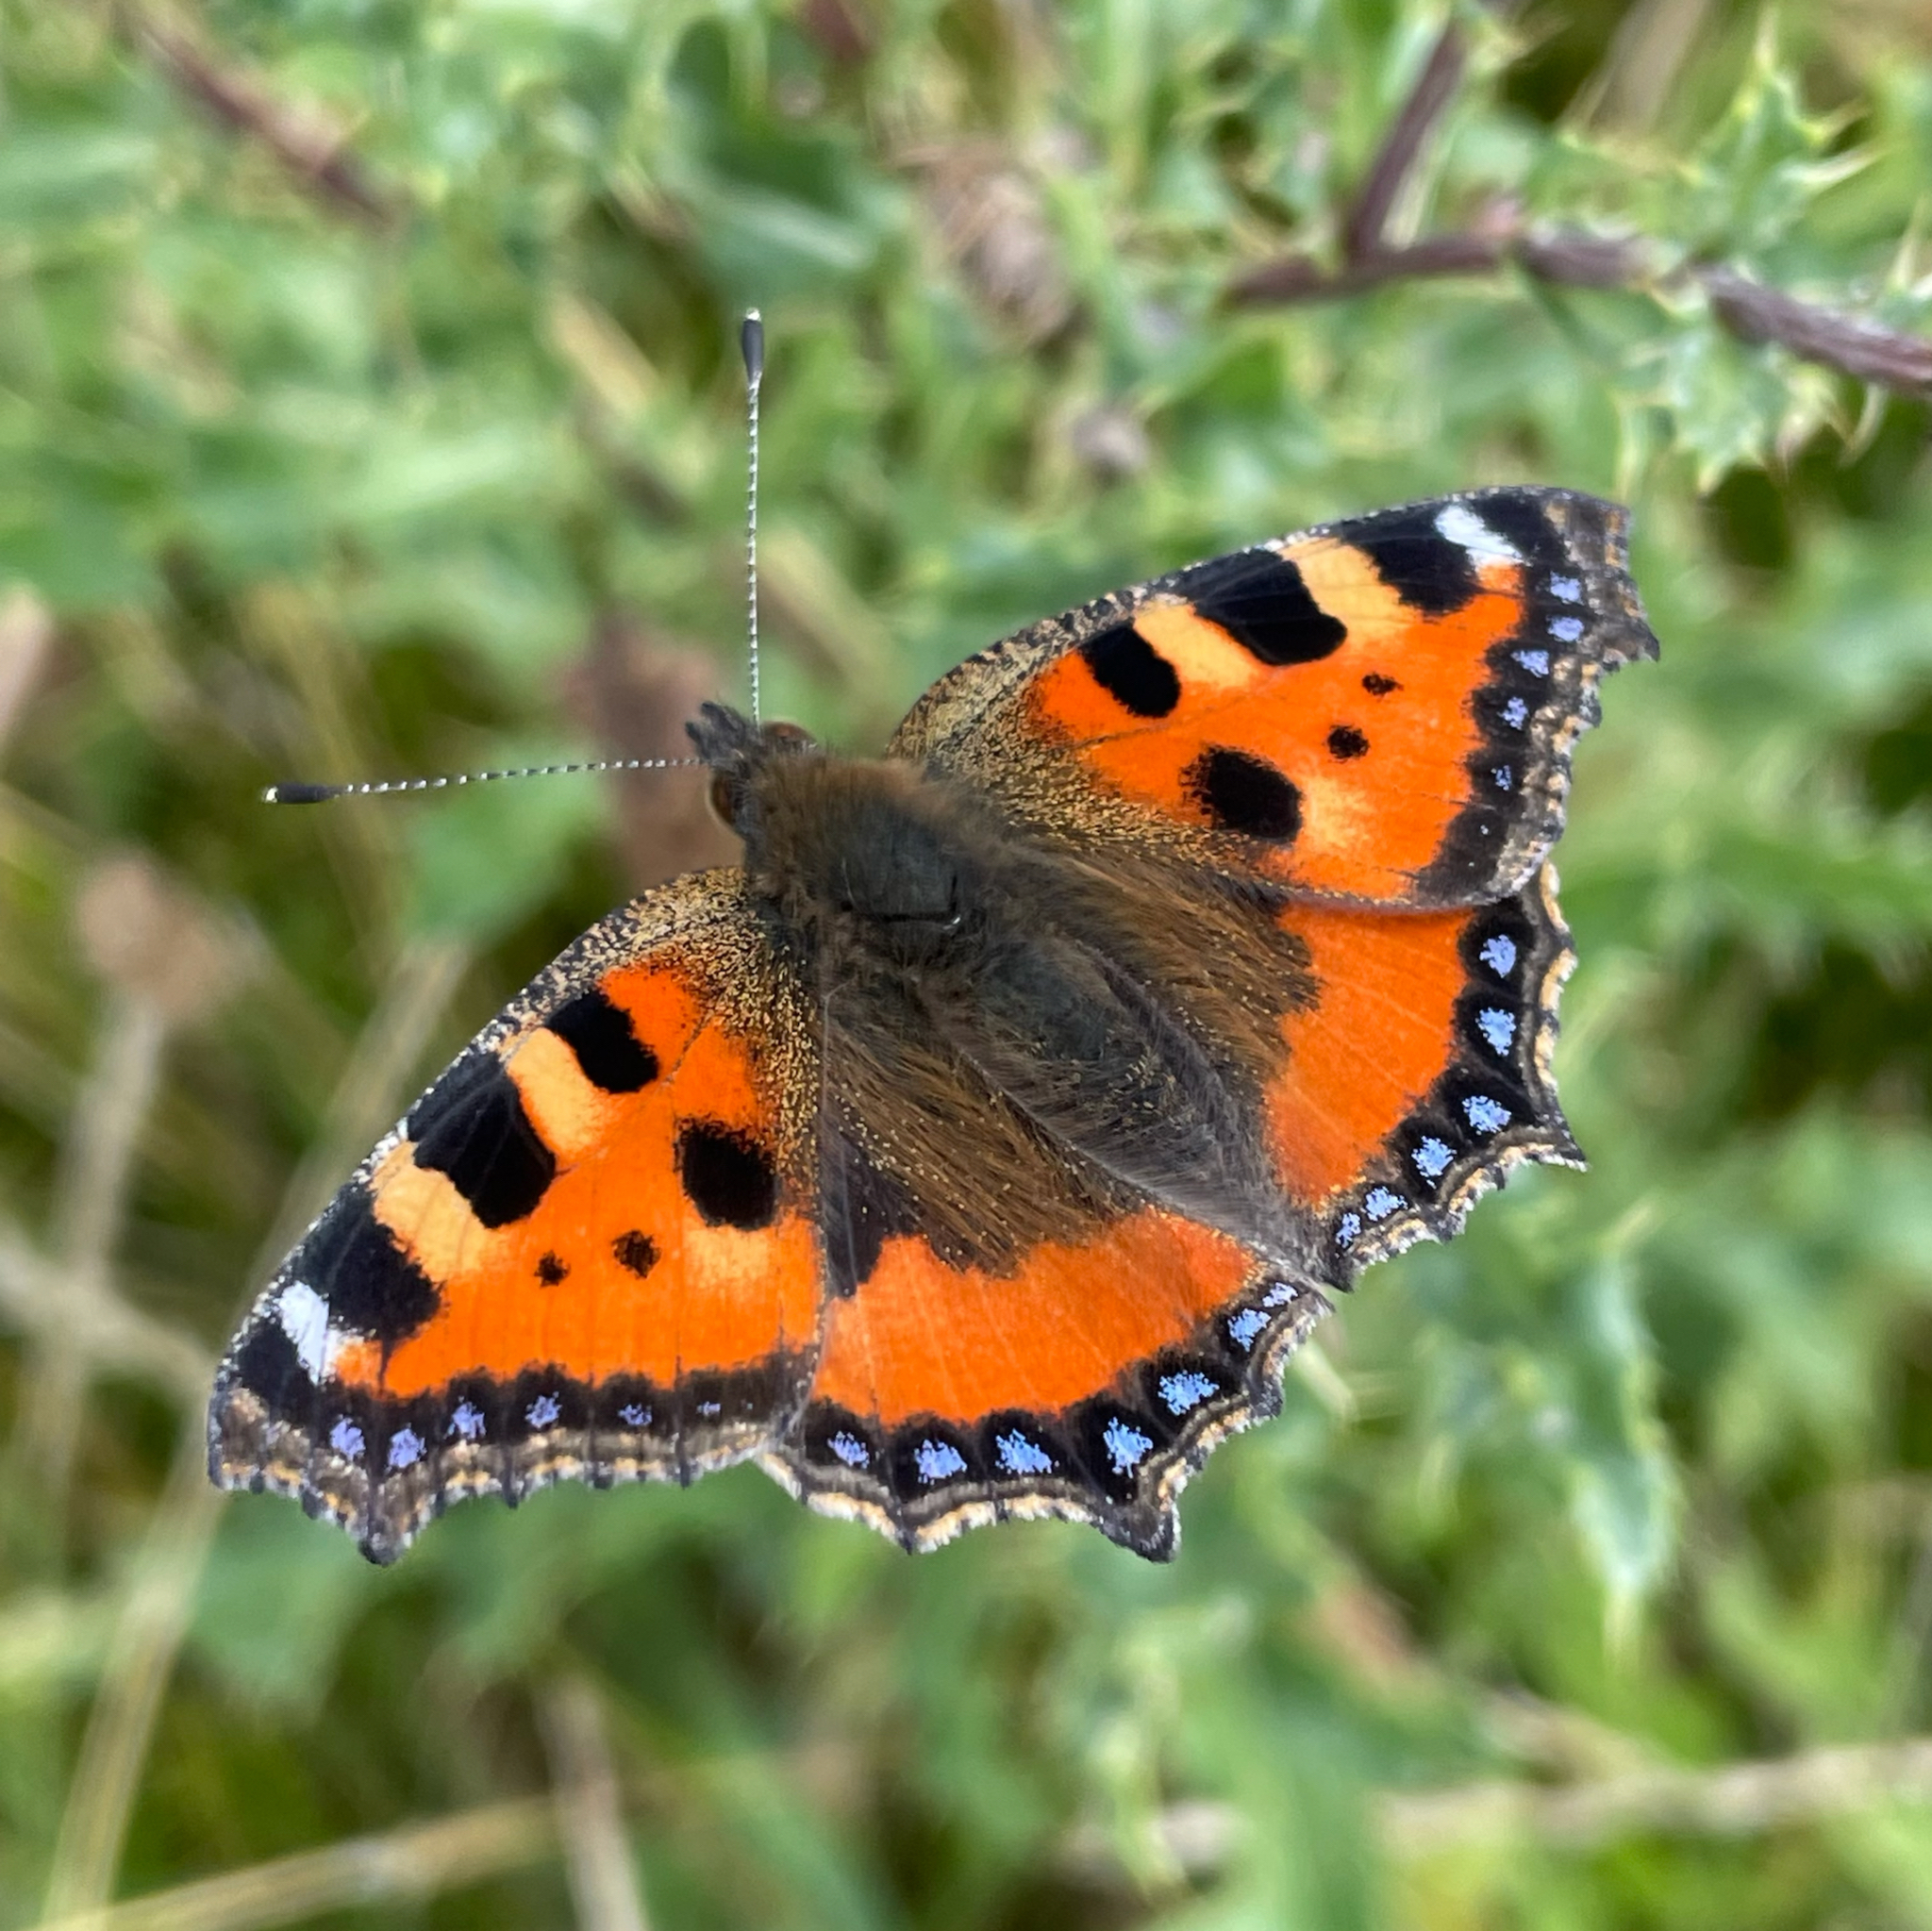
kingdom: Animalia
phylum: Arthropoda
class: Insecta
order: Lepidoptera
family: Nymphalidae
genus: Aglais
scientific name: Aglais urticae
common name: Small tortoiseshell
